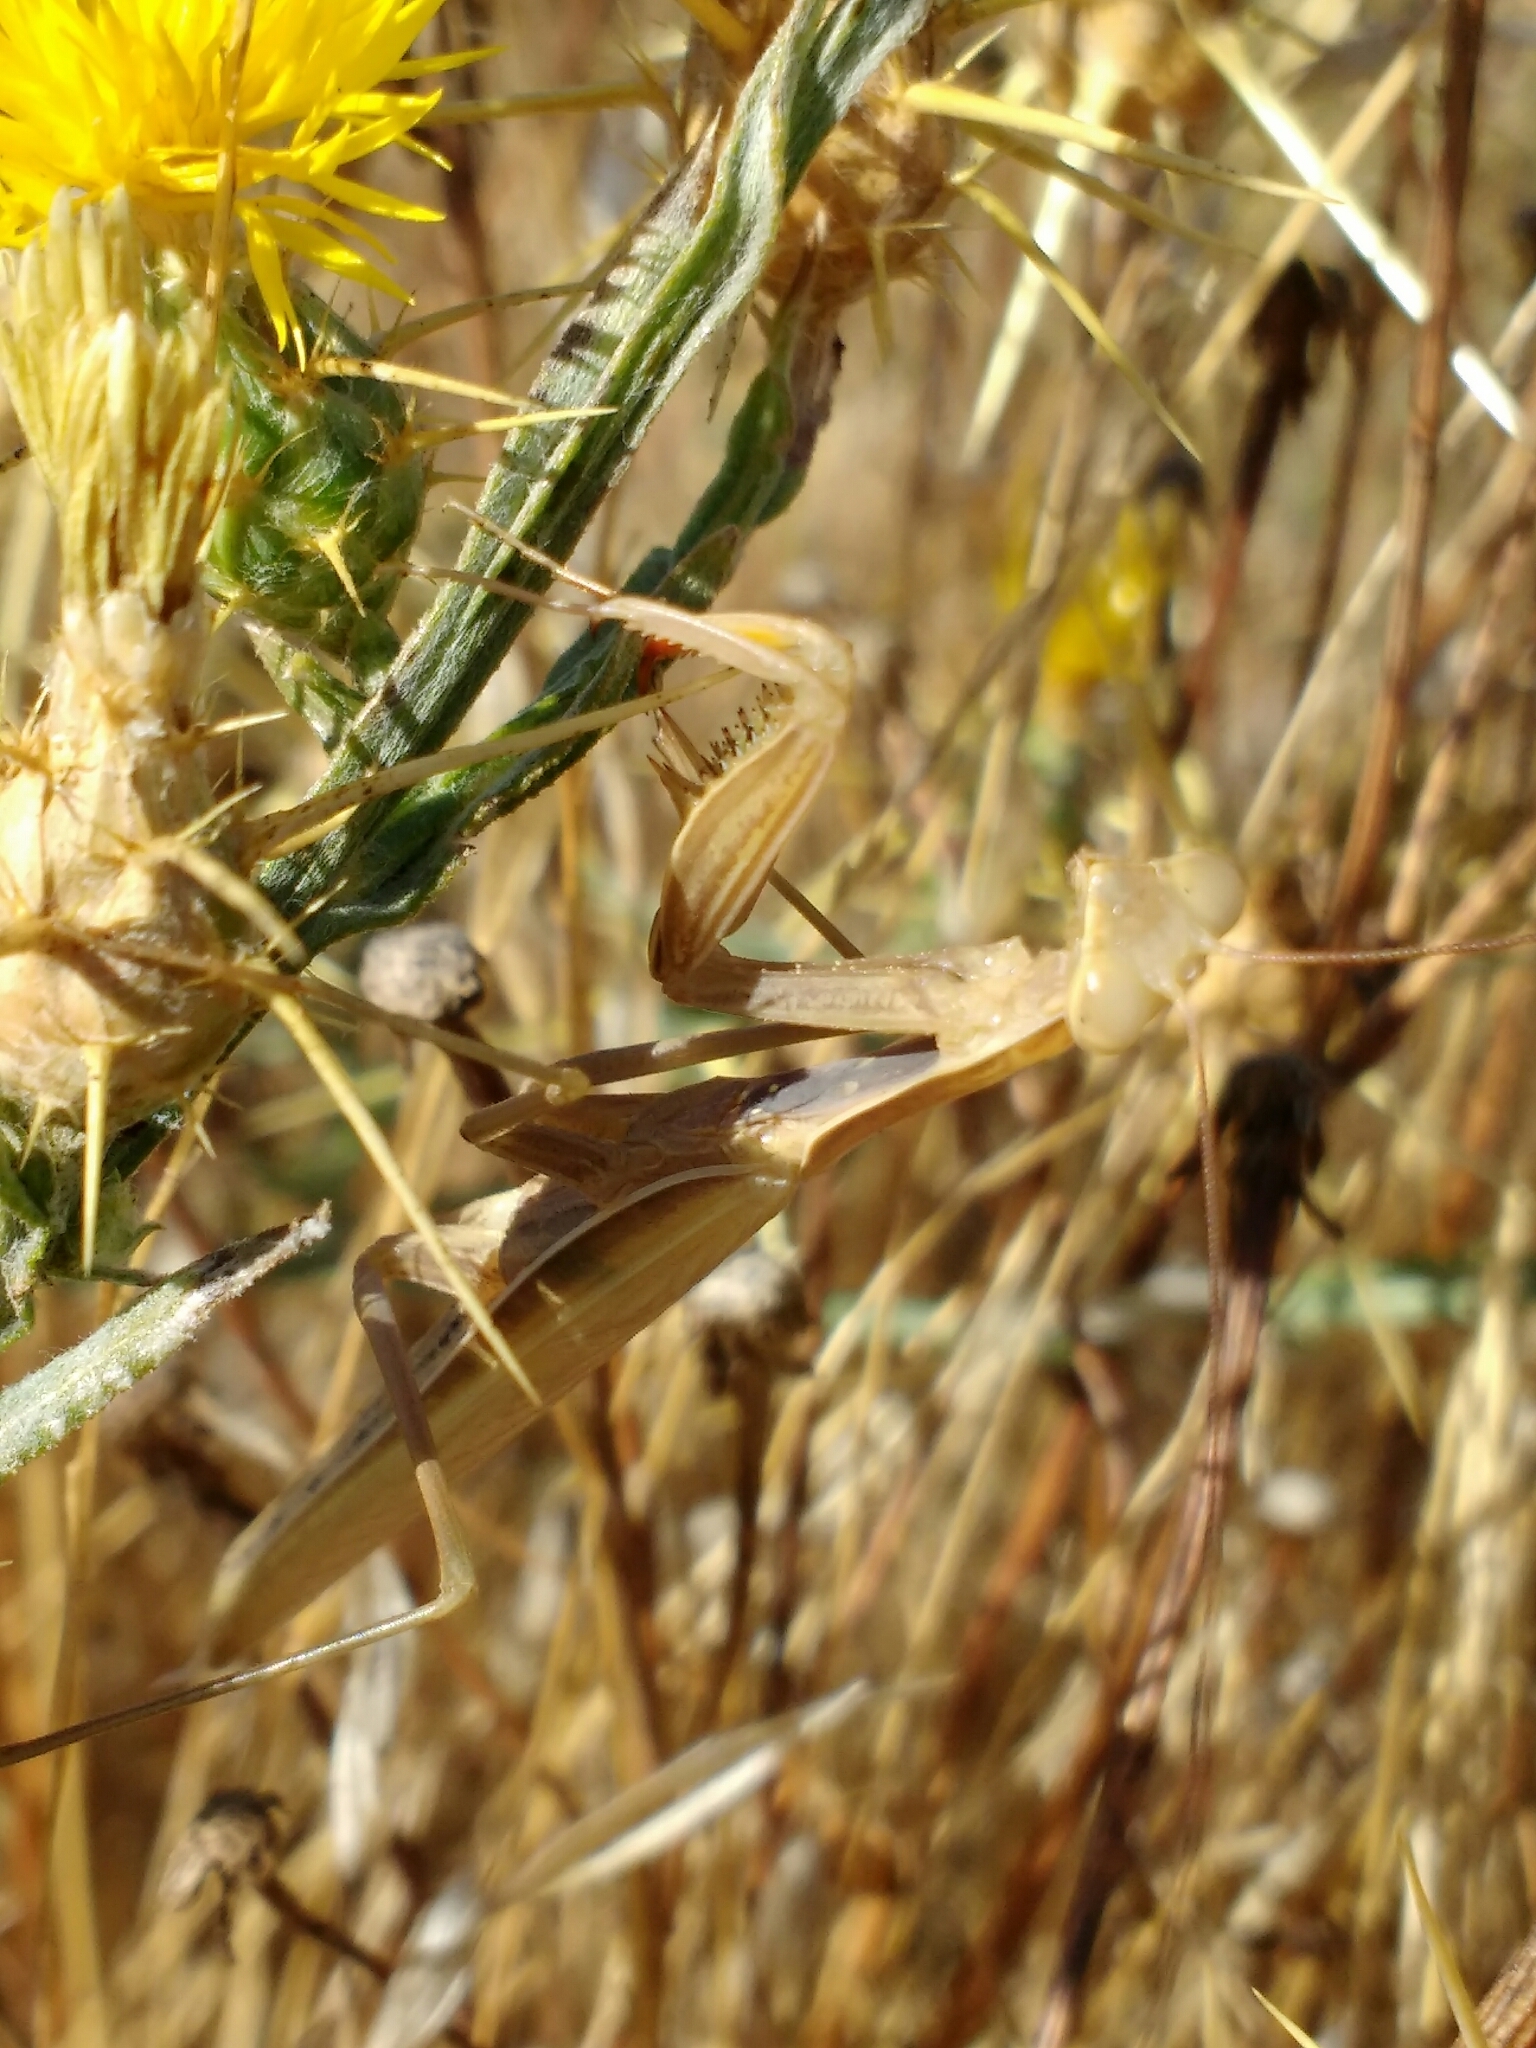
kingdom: Animalia
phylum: Arthropoda
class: Insecta
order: Mantodea
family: Mantidae
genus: Mantis
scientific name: Mantis religiosa
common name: Praying mantis
